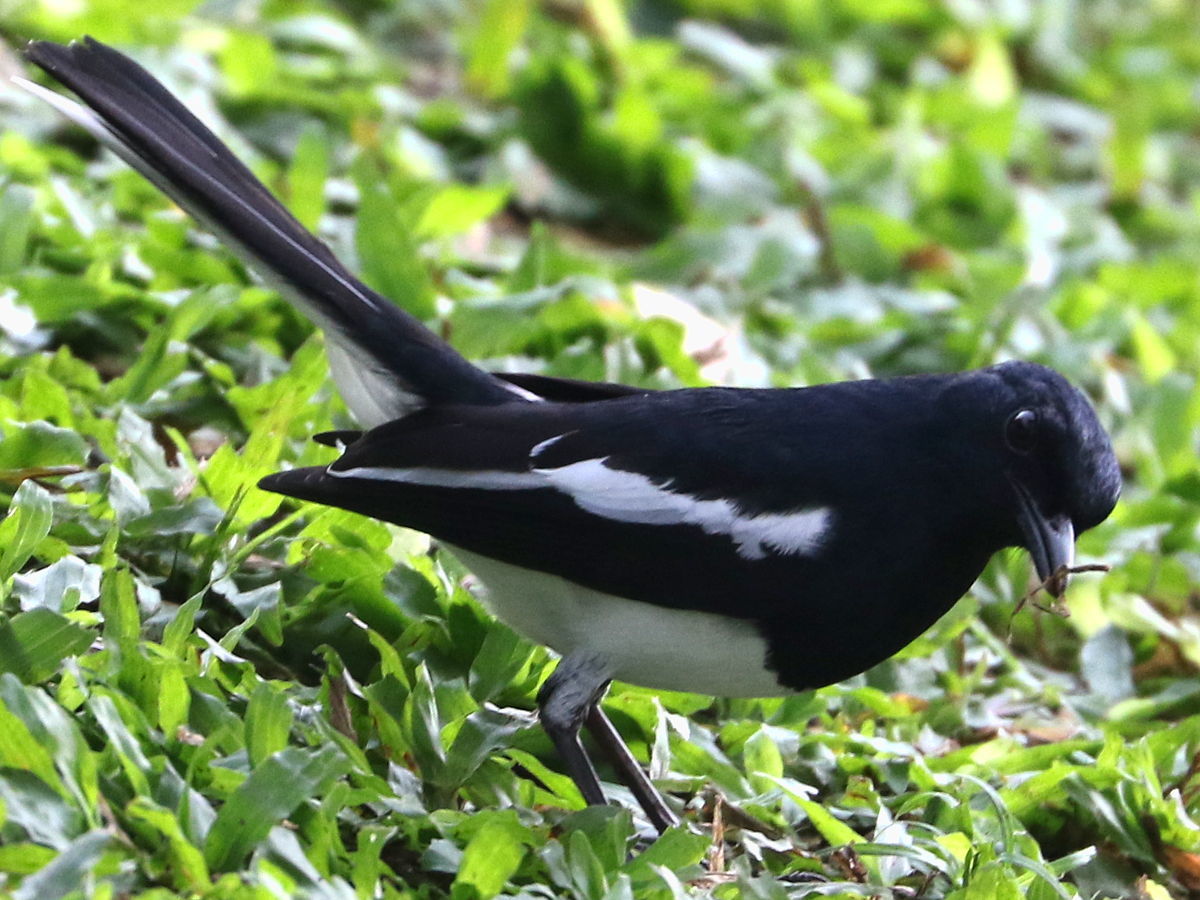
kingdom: Animalia
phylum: Chordata
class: Aves
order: Passeriformes
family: Muscicapidae
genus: Copsychus
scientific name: Copsychus saularis
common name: Oriental magpie-robin
